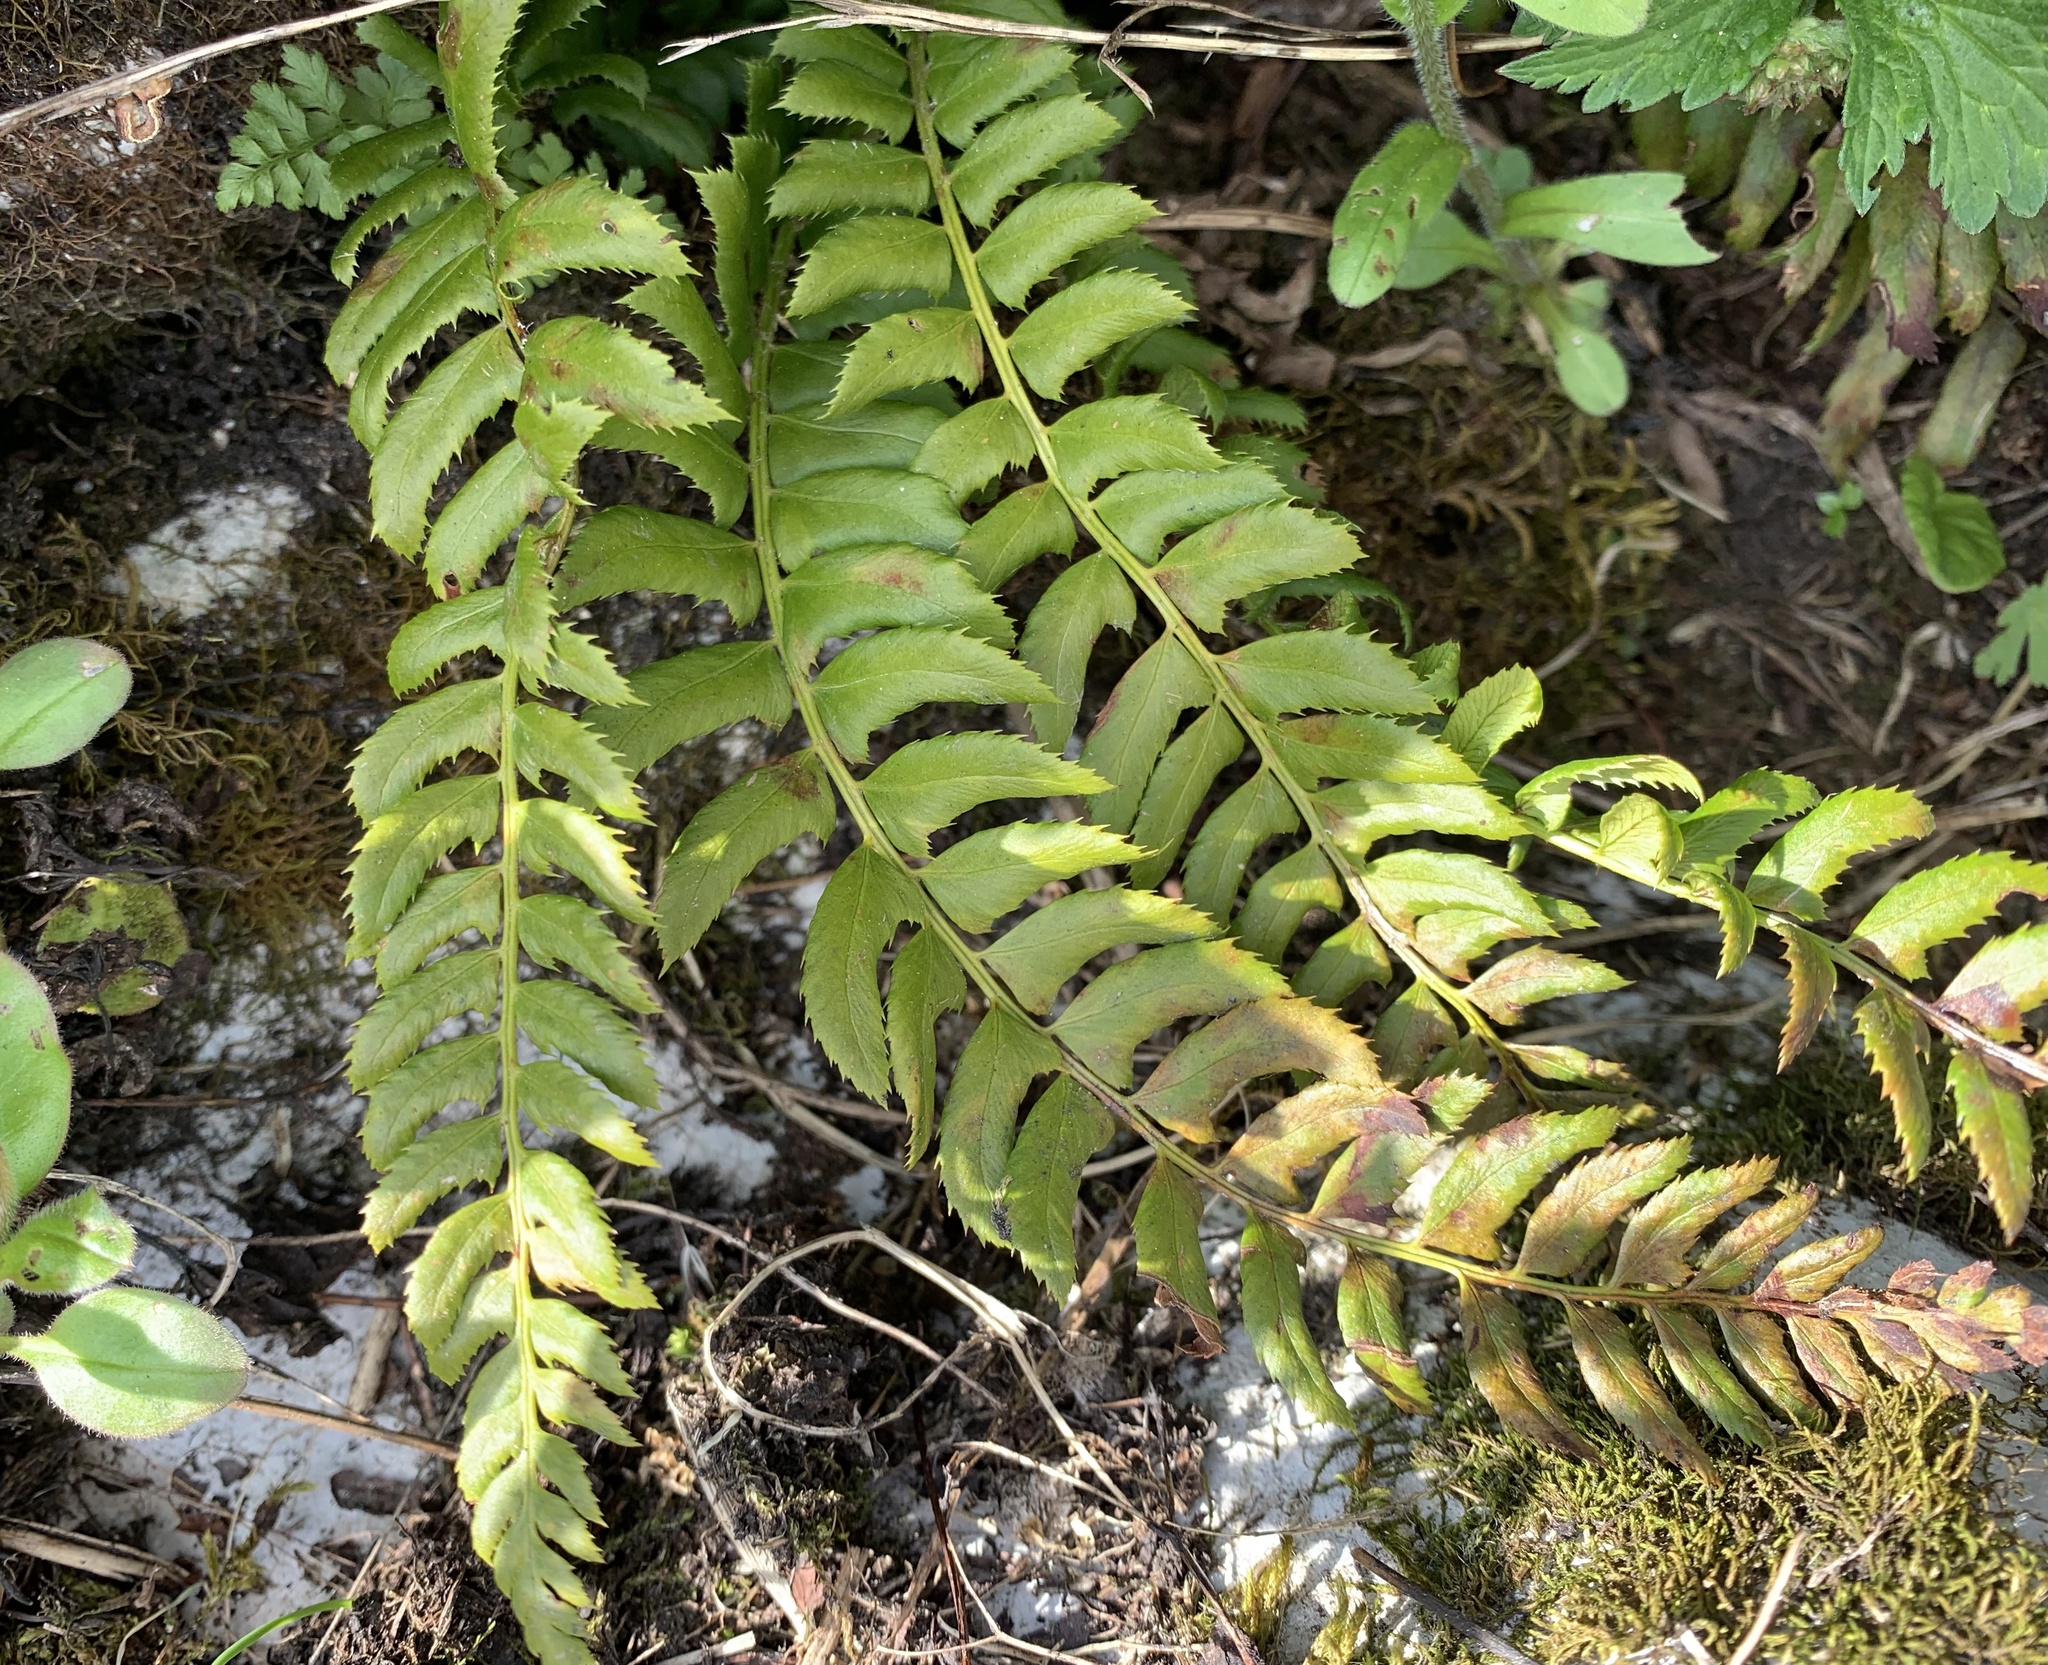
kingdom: Plantae
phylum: Tracheophyta
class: Polypodiopsida
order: Polypodiales
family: Dryopteridaceae
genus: Polystichum
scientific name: Polystichum lonchitis
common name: Holly fern
